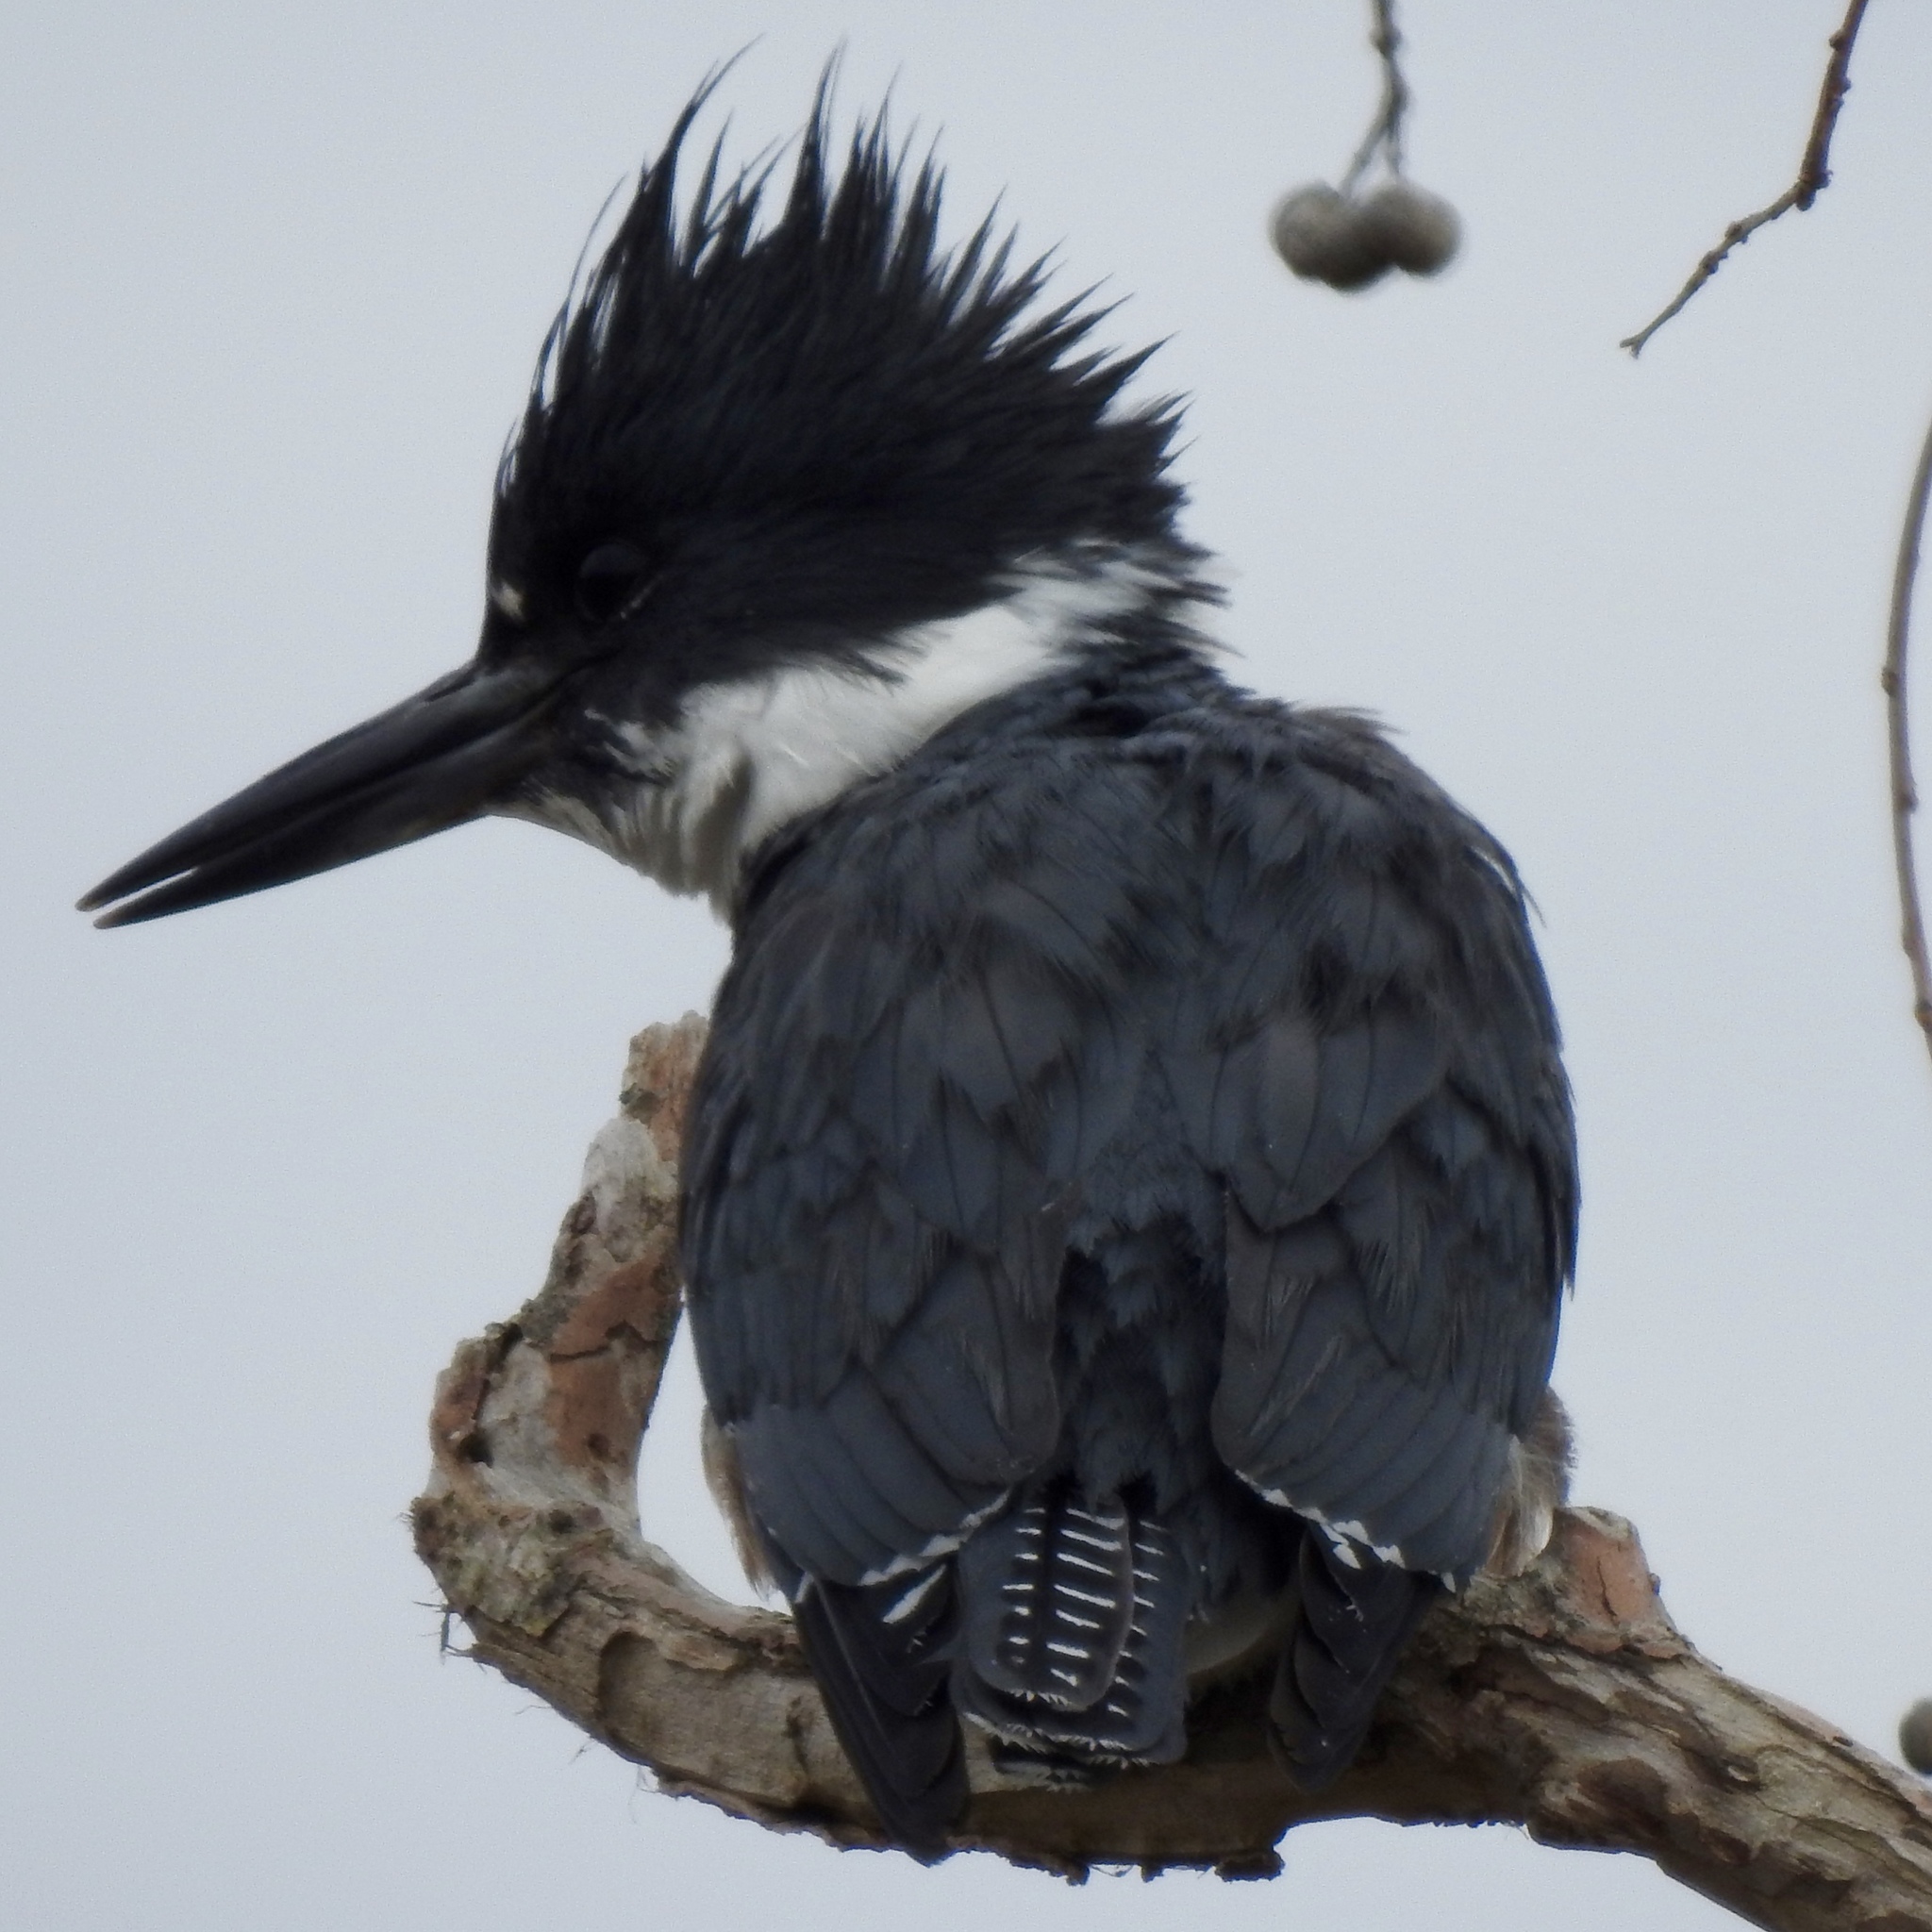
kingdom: Animalia
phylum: Chordata
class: Aves
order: Coraciiformes
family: Alcedinidae
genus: Megaceryle
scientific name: Megaceryle alcyon
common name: Belted kingfisher
